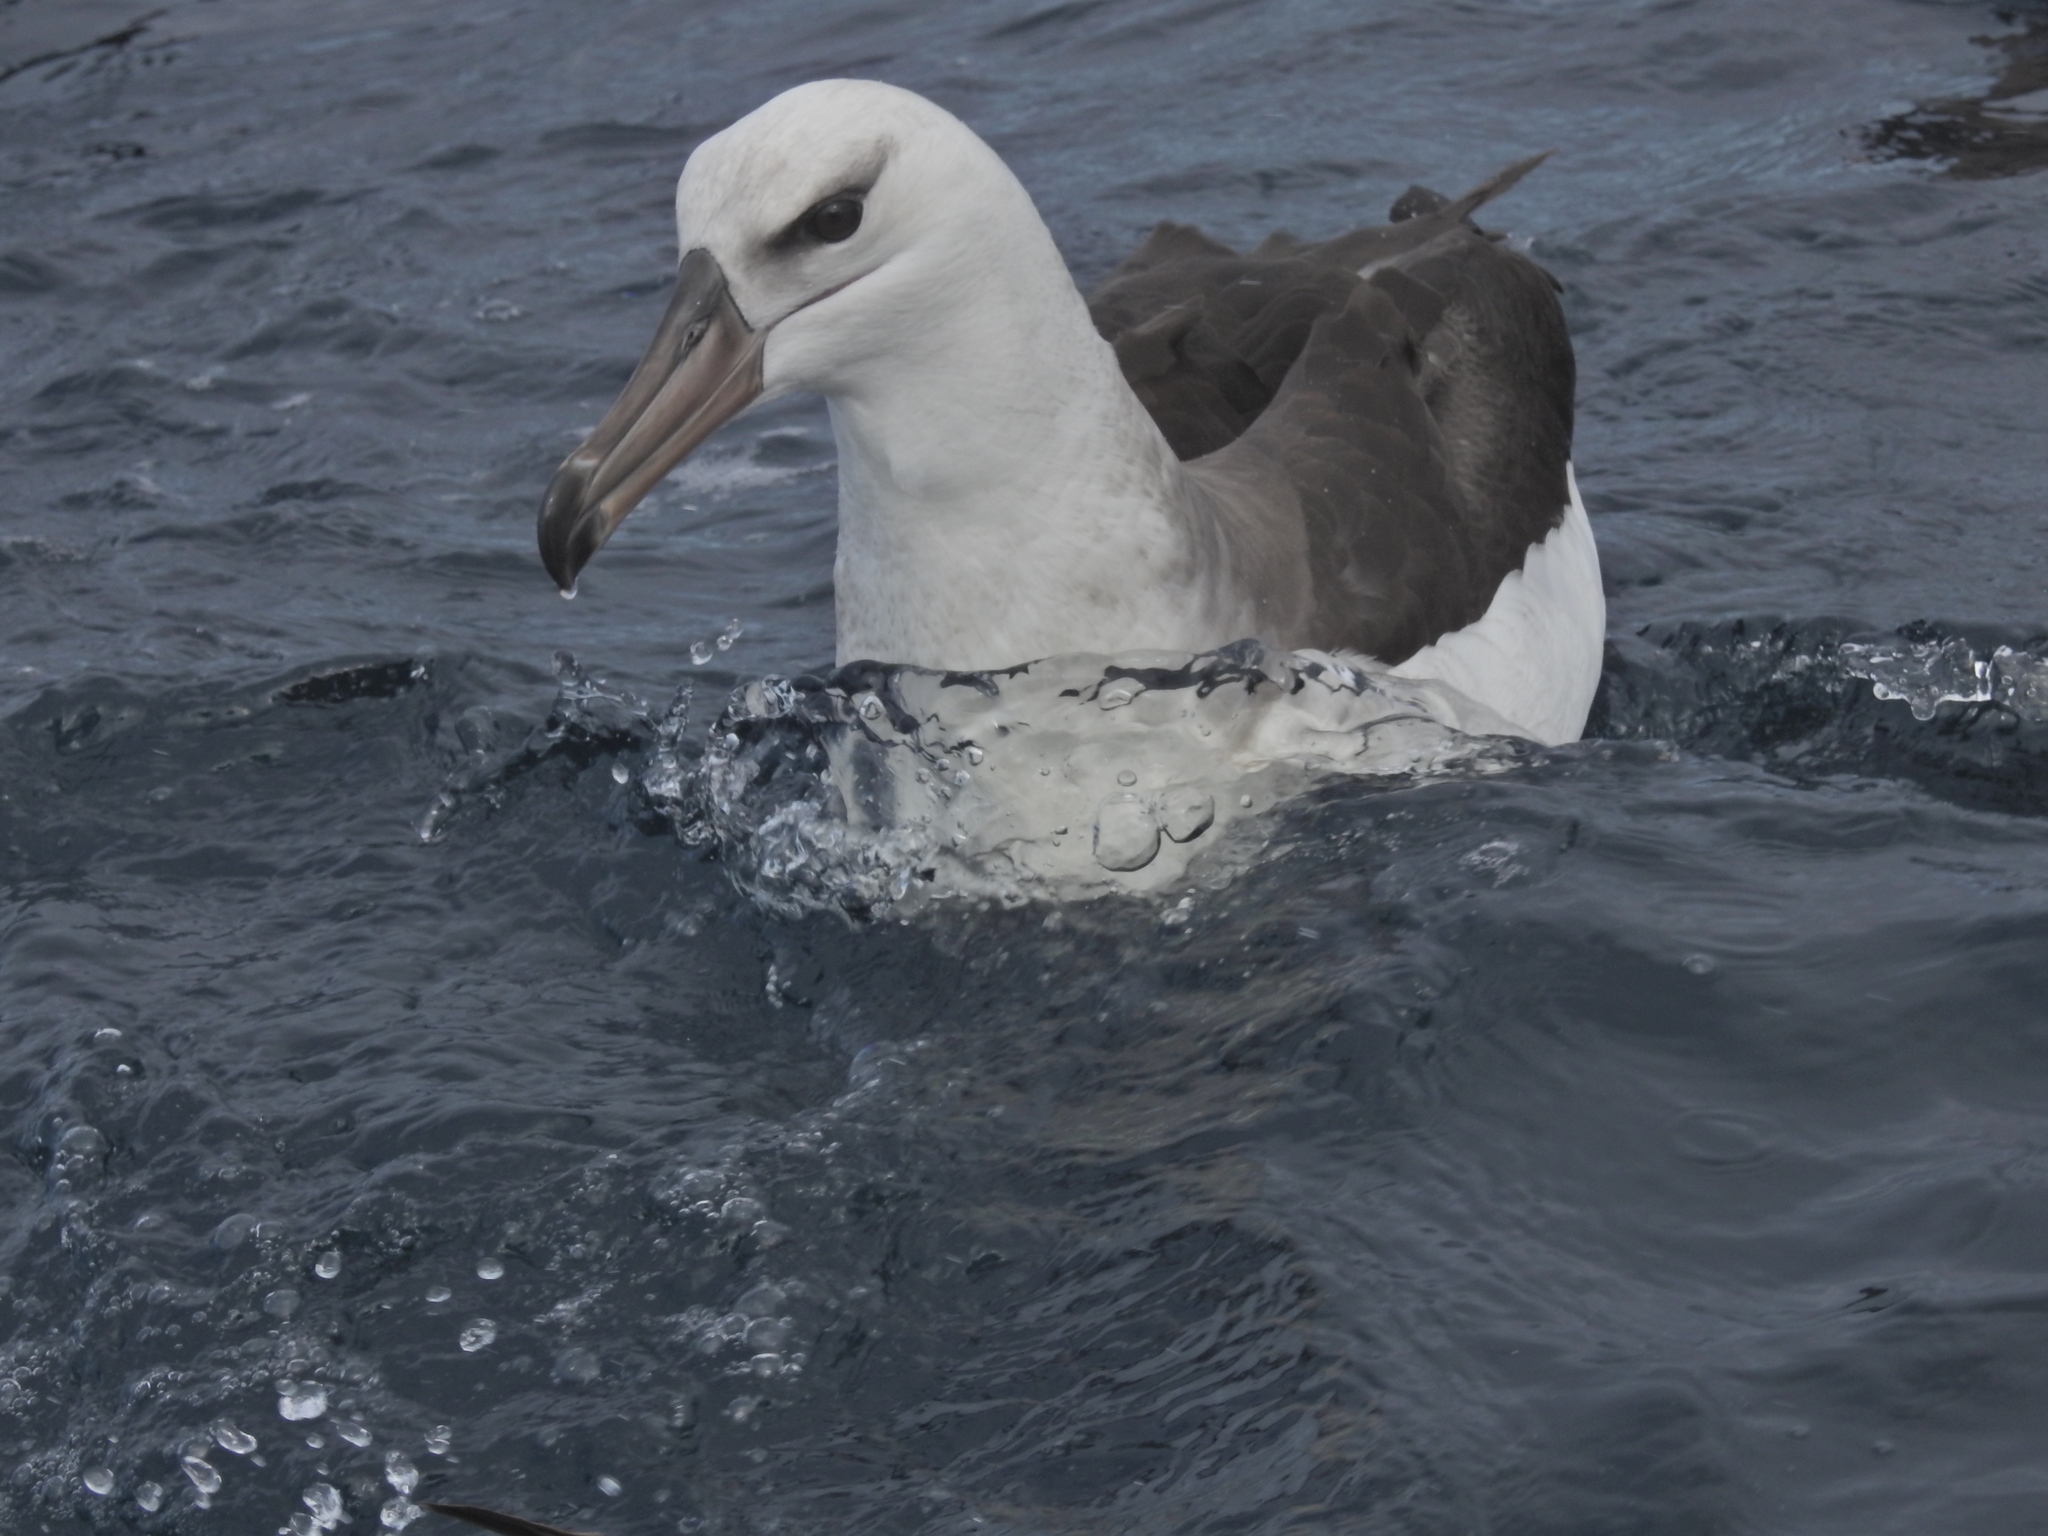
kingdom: Animalia
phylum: Chordata
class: Aves
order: Procellariiformes
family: Diomedeidae
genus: Thalassarche
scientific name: Thalassarche melanophris
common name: Black-browed albatross
